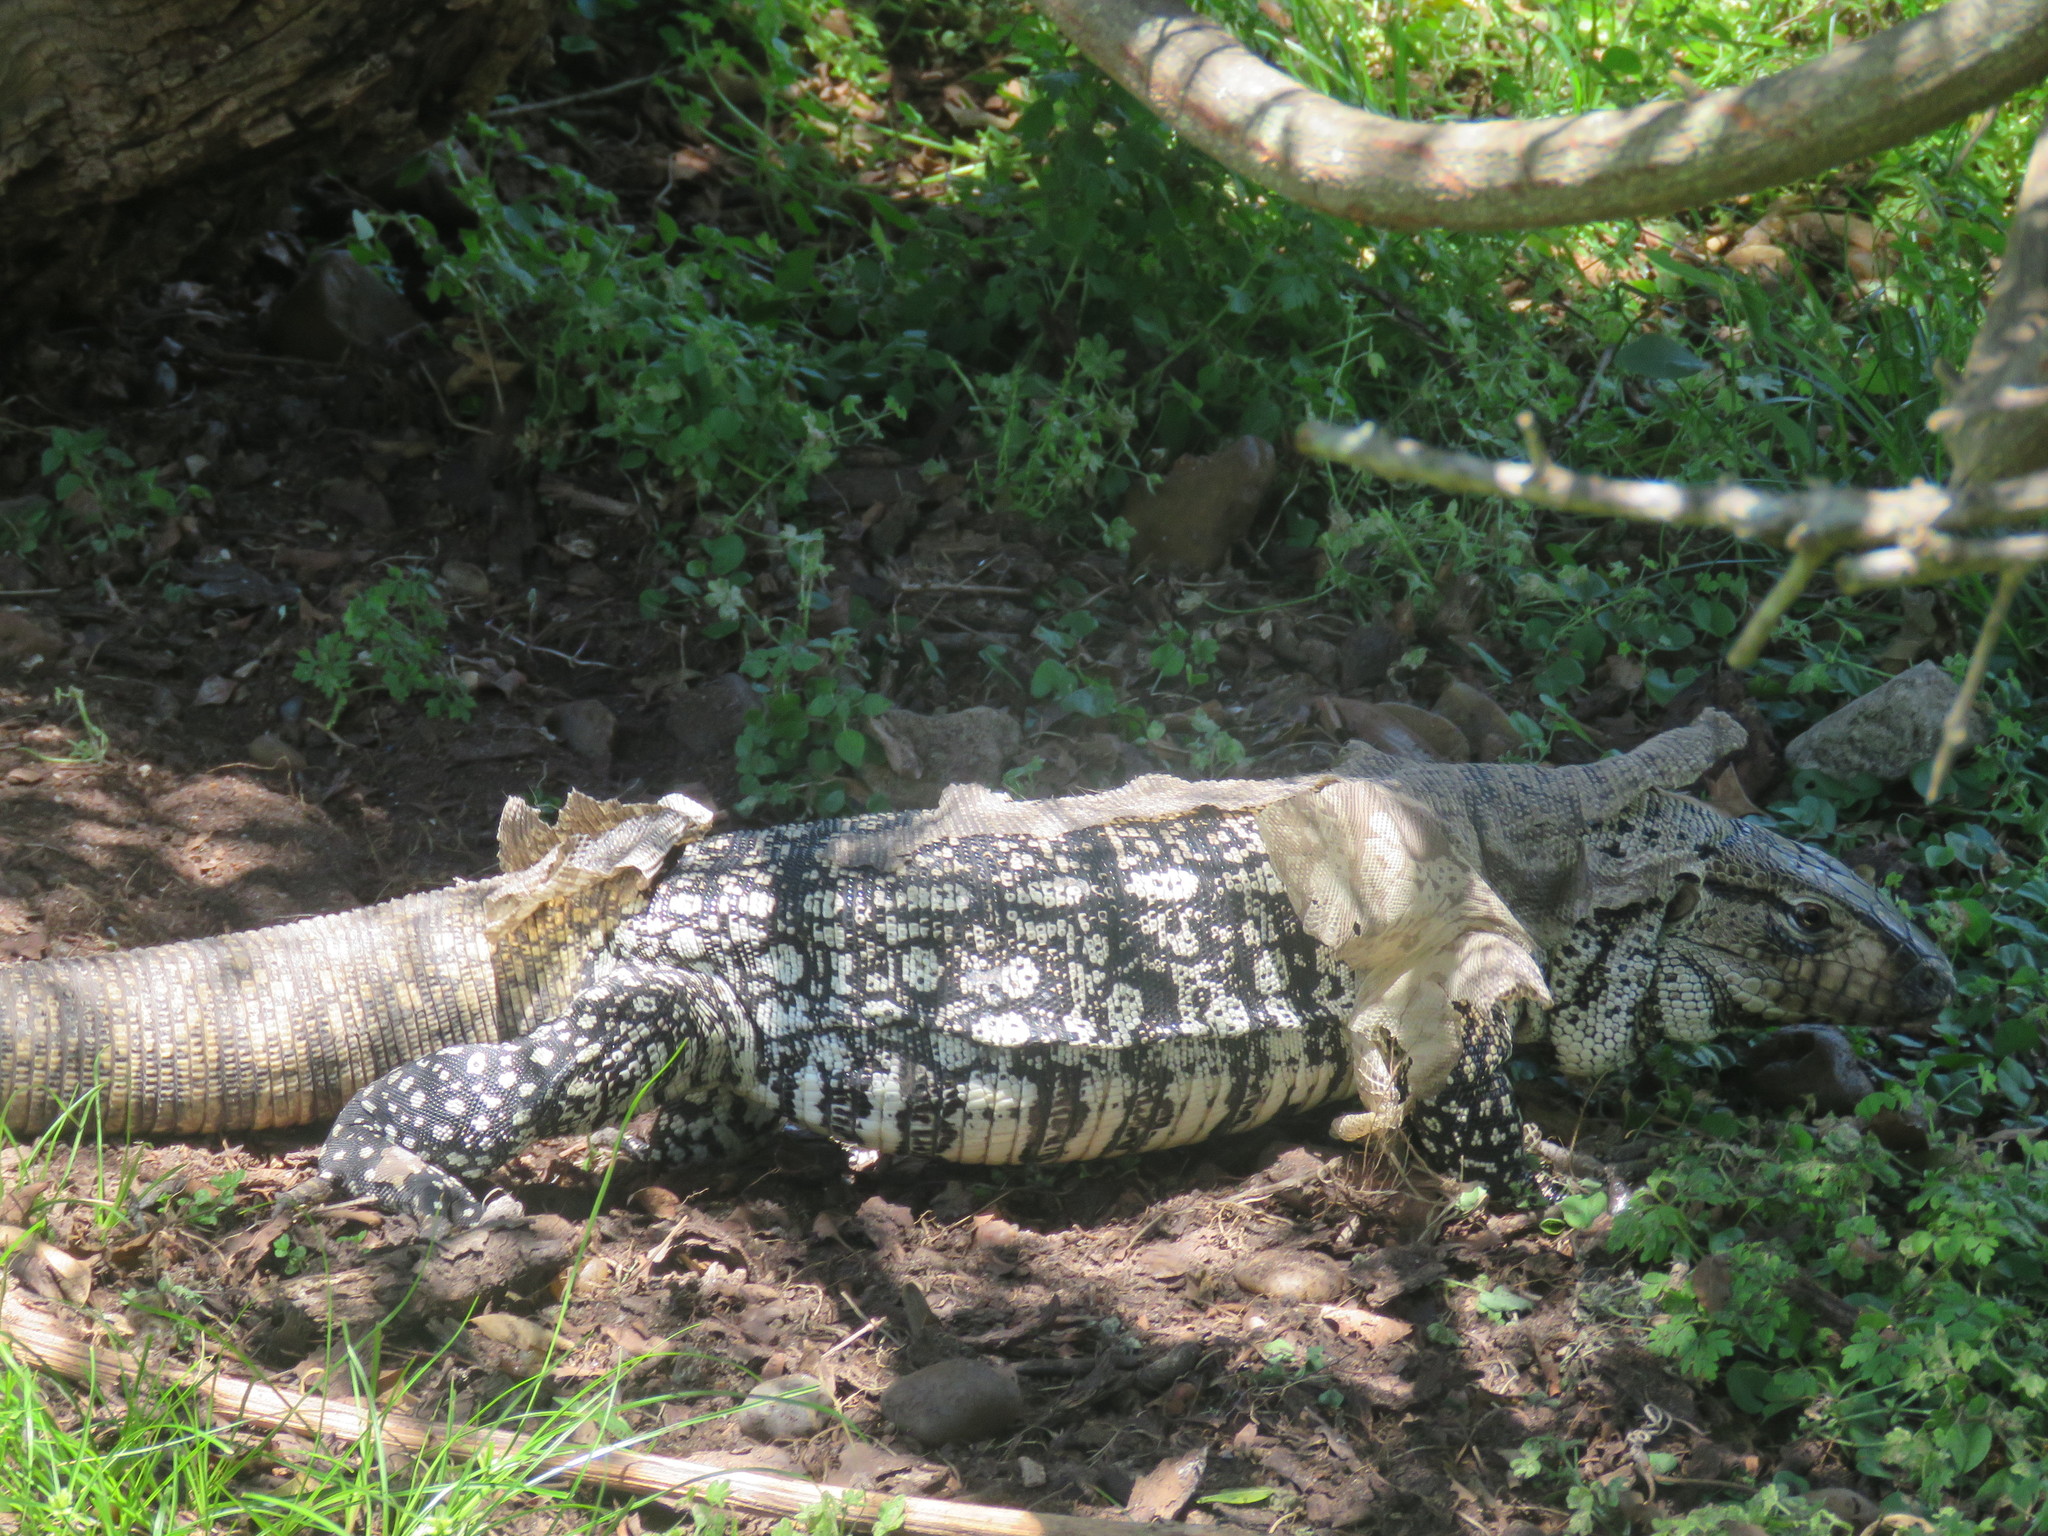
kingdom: Animalia
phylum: Chordata
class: Squamata
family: Teiidae
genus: Salvator
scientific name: Salvator merianae
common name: Argentine black and white tegu
